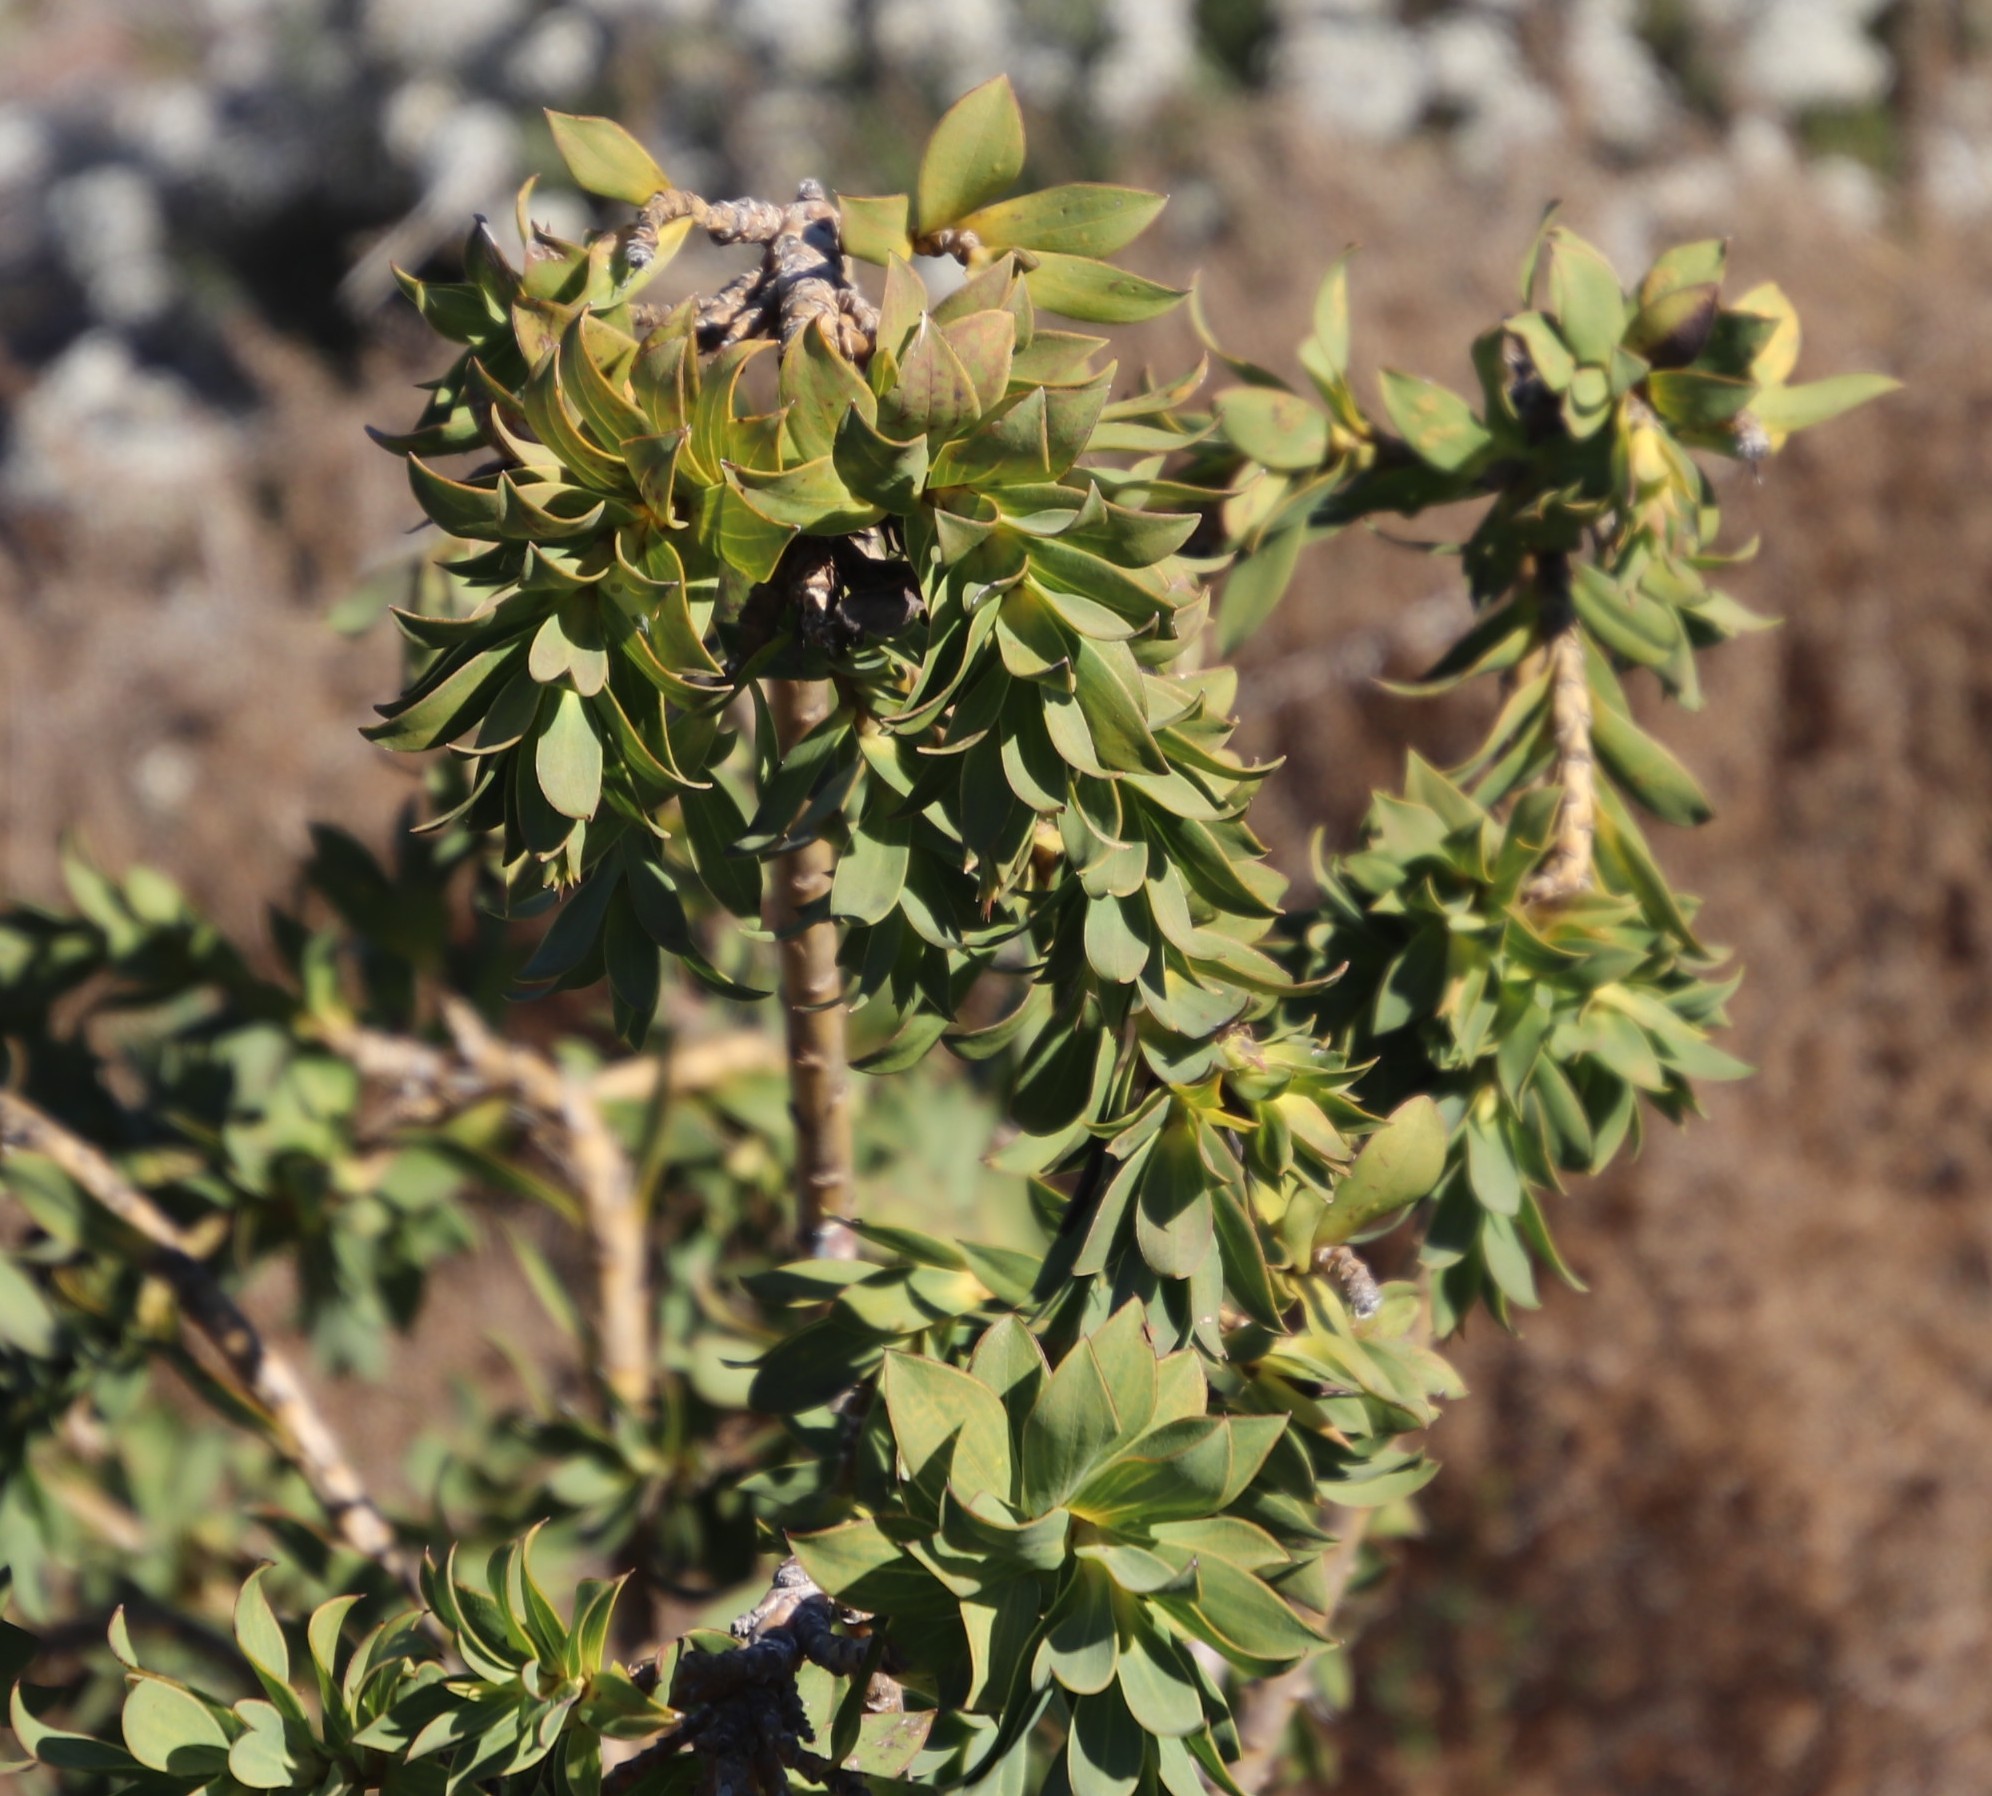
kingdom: Plantae
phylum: Tracheophyta
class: Magnoliopsida
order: Fabales
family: Fabaceae
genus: Liparia
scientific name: Liparia splendens
